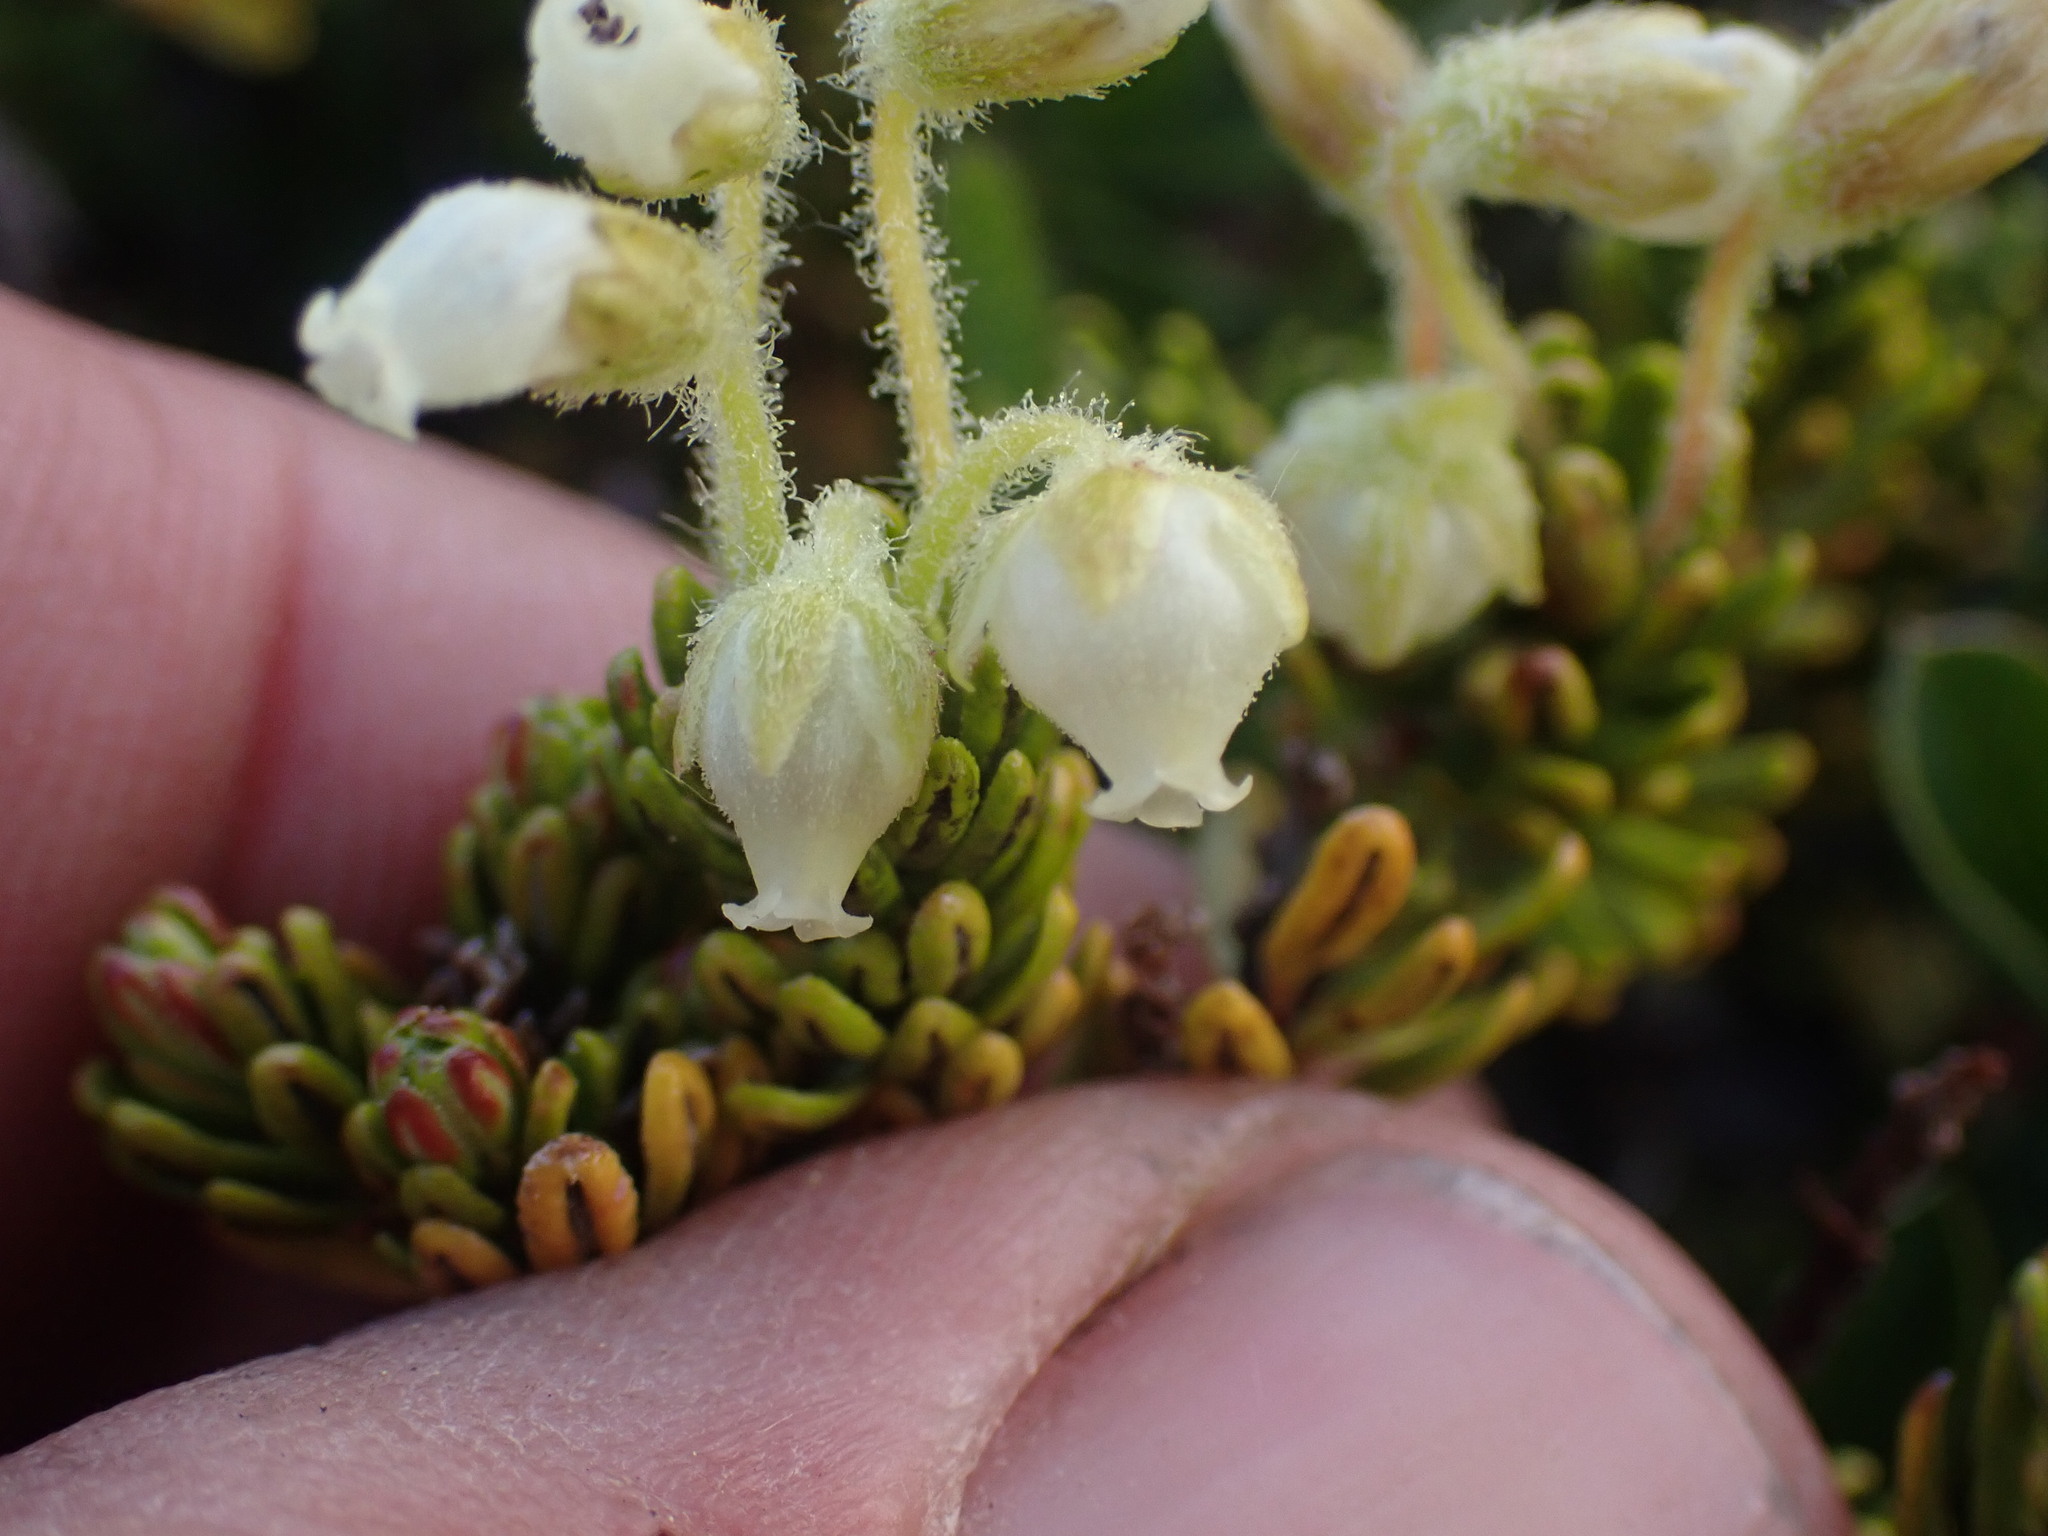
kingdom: Plantae
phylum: Tracheophyta
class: Magnoliopsida
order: Ericales
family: Ericaceae
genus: Phyllodoce
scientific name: Phyllodoce glanduliflora
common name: Cream mountain heather
